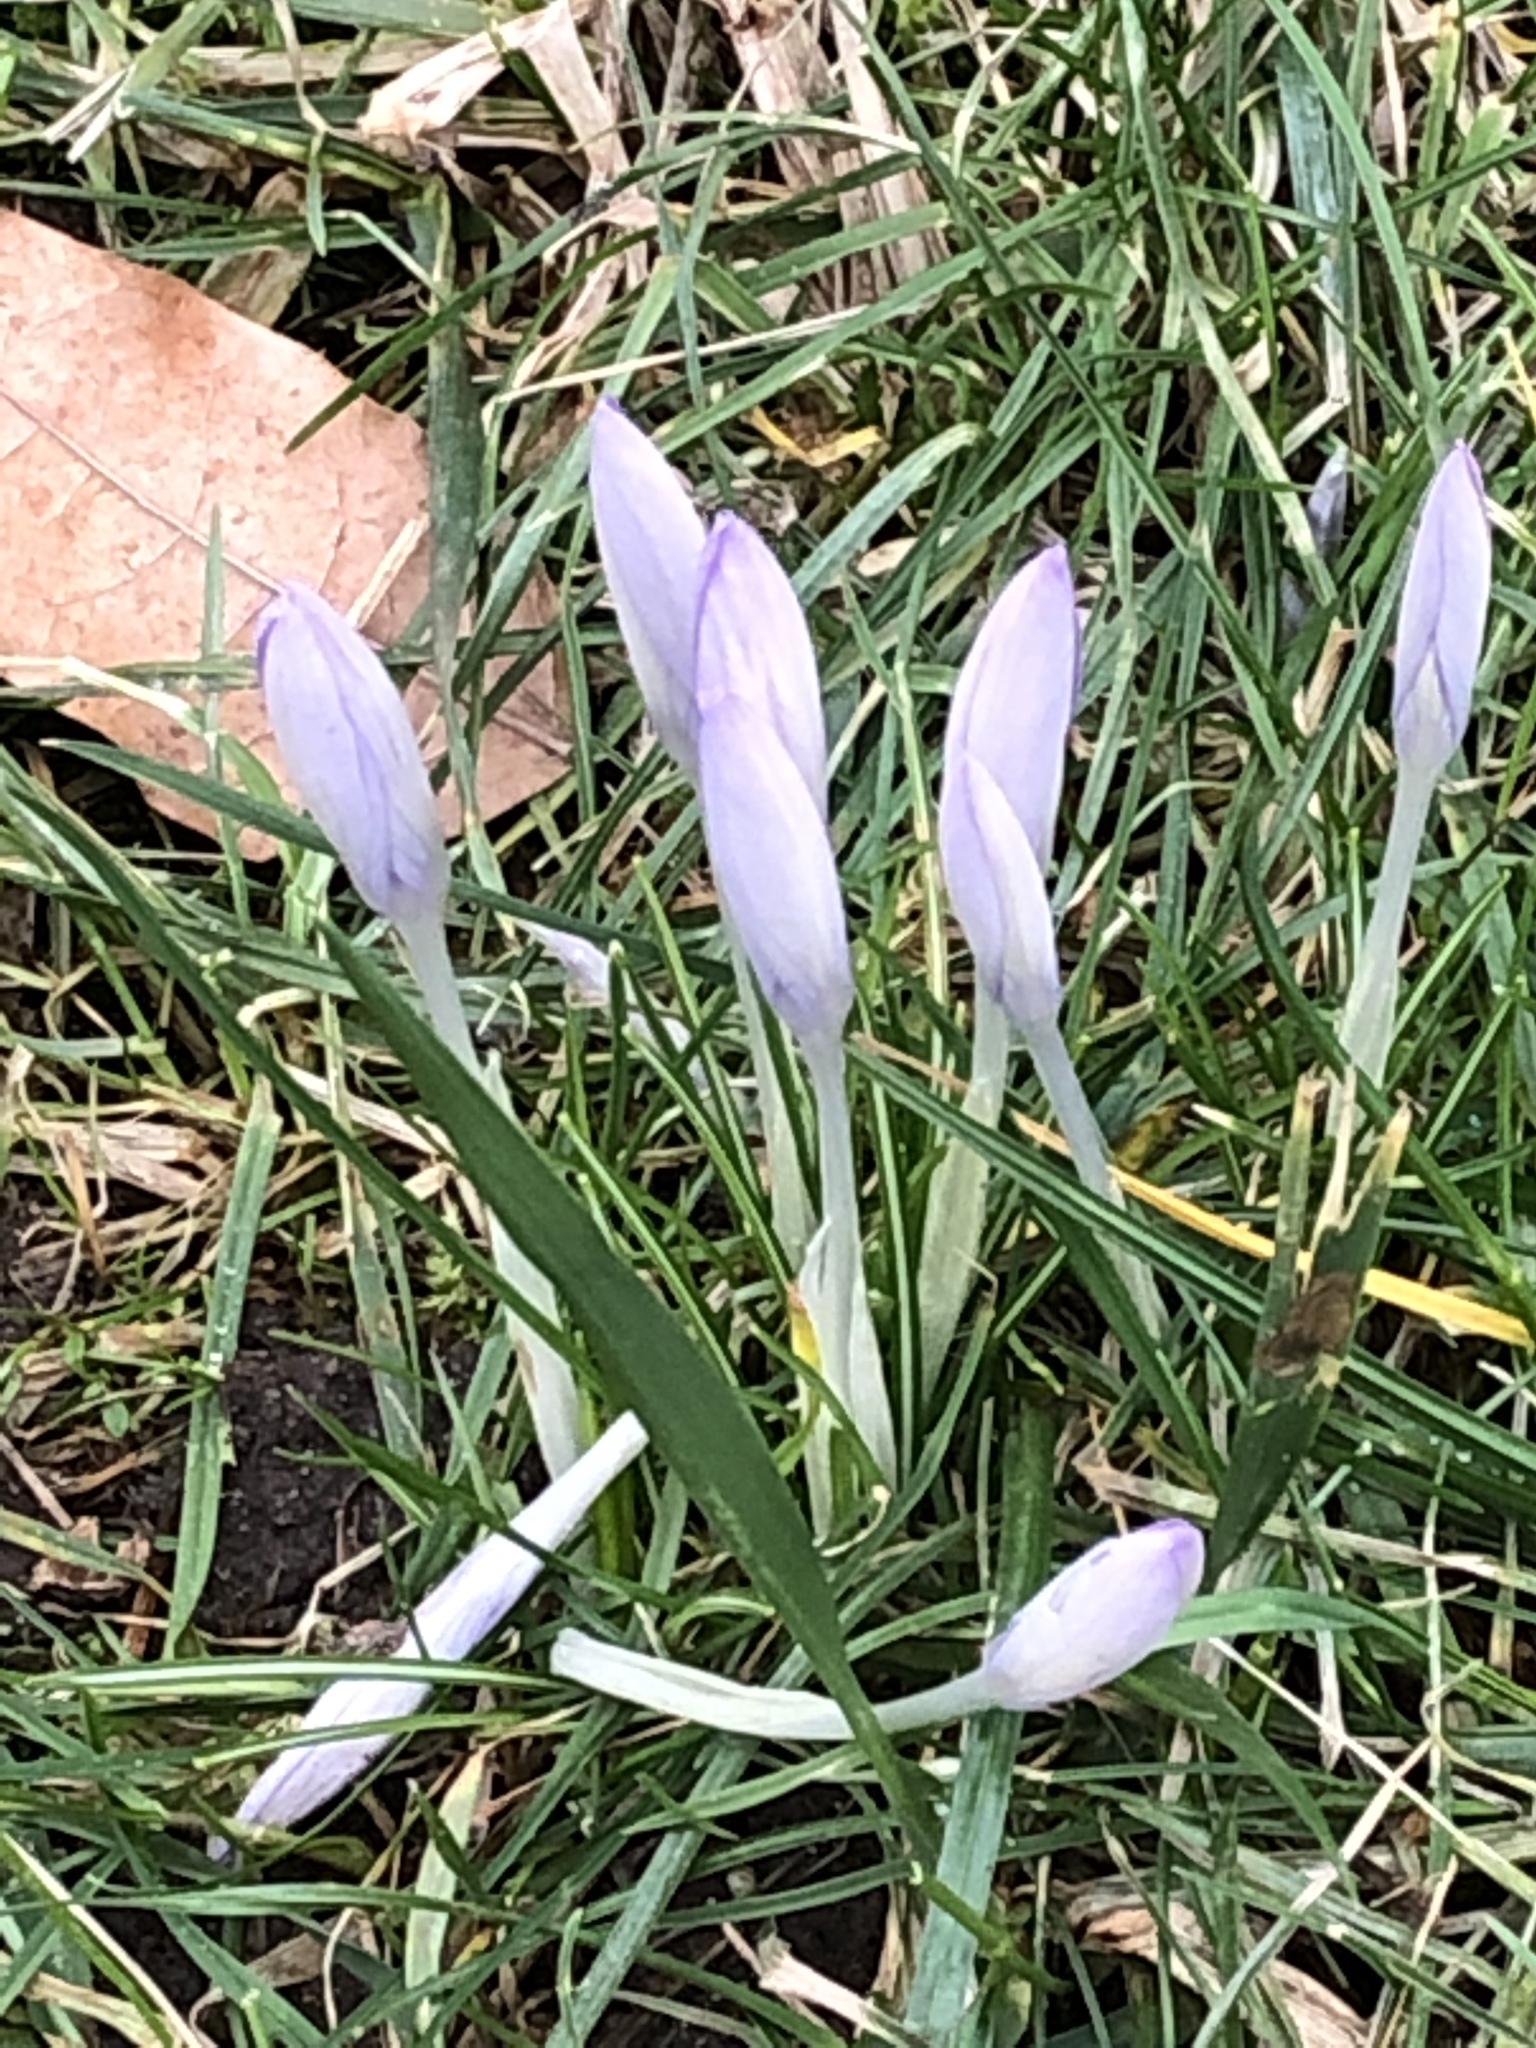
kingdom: Plantae
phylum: Tracheophyta
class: Liliopsida
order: Asparagales
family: Iridaceae
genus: Crocus
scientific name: Crocus tommasinianus
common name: Early crocus
